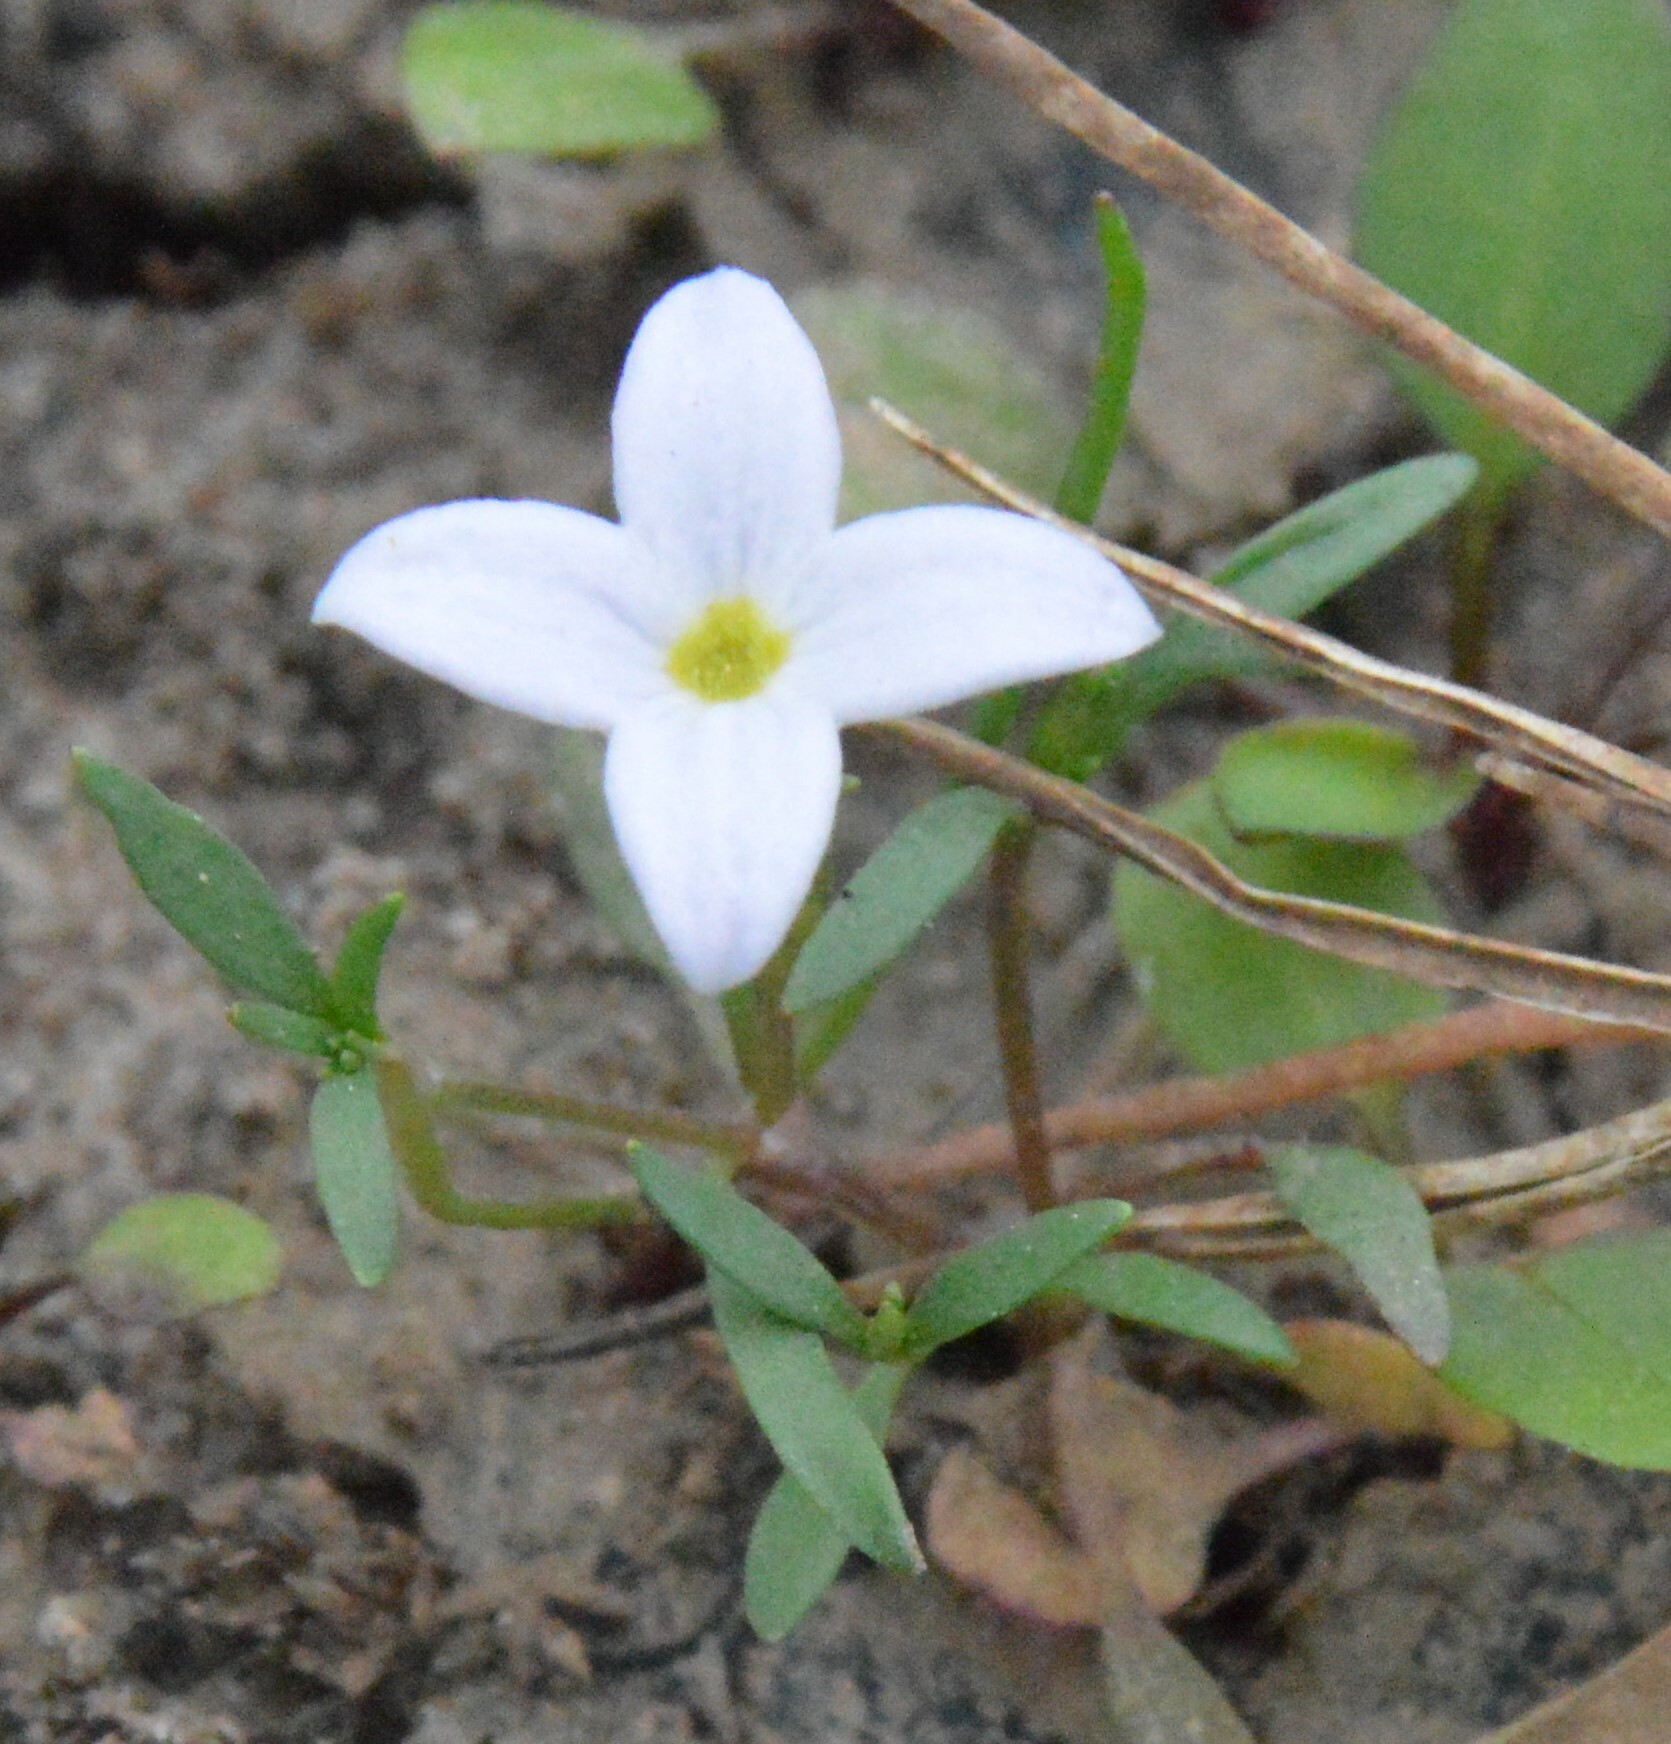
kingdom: Plantae
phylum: Tracheophyta
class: Magnoliopsida
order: Gentianales
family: Rubiaceae
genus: Houstonia
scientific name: Houstonia rosea
